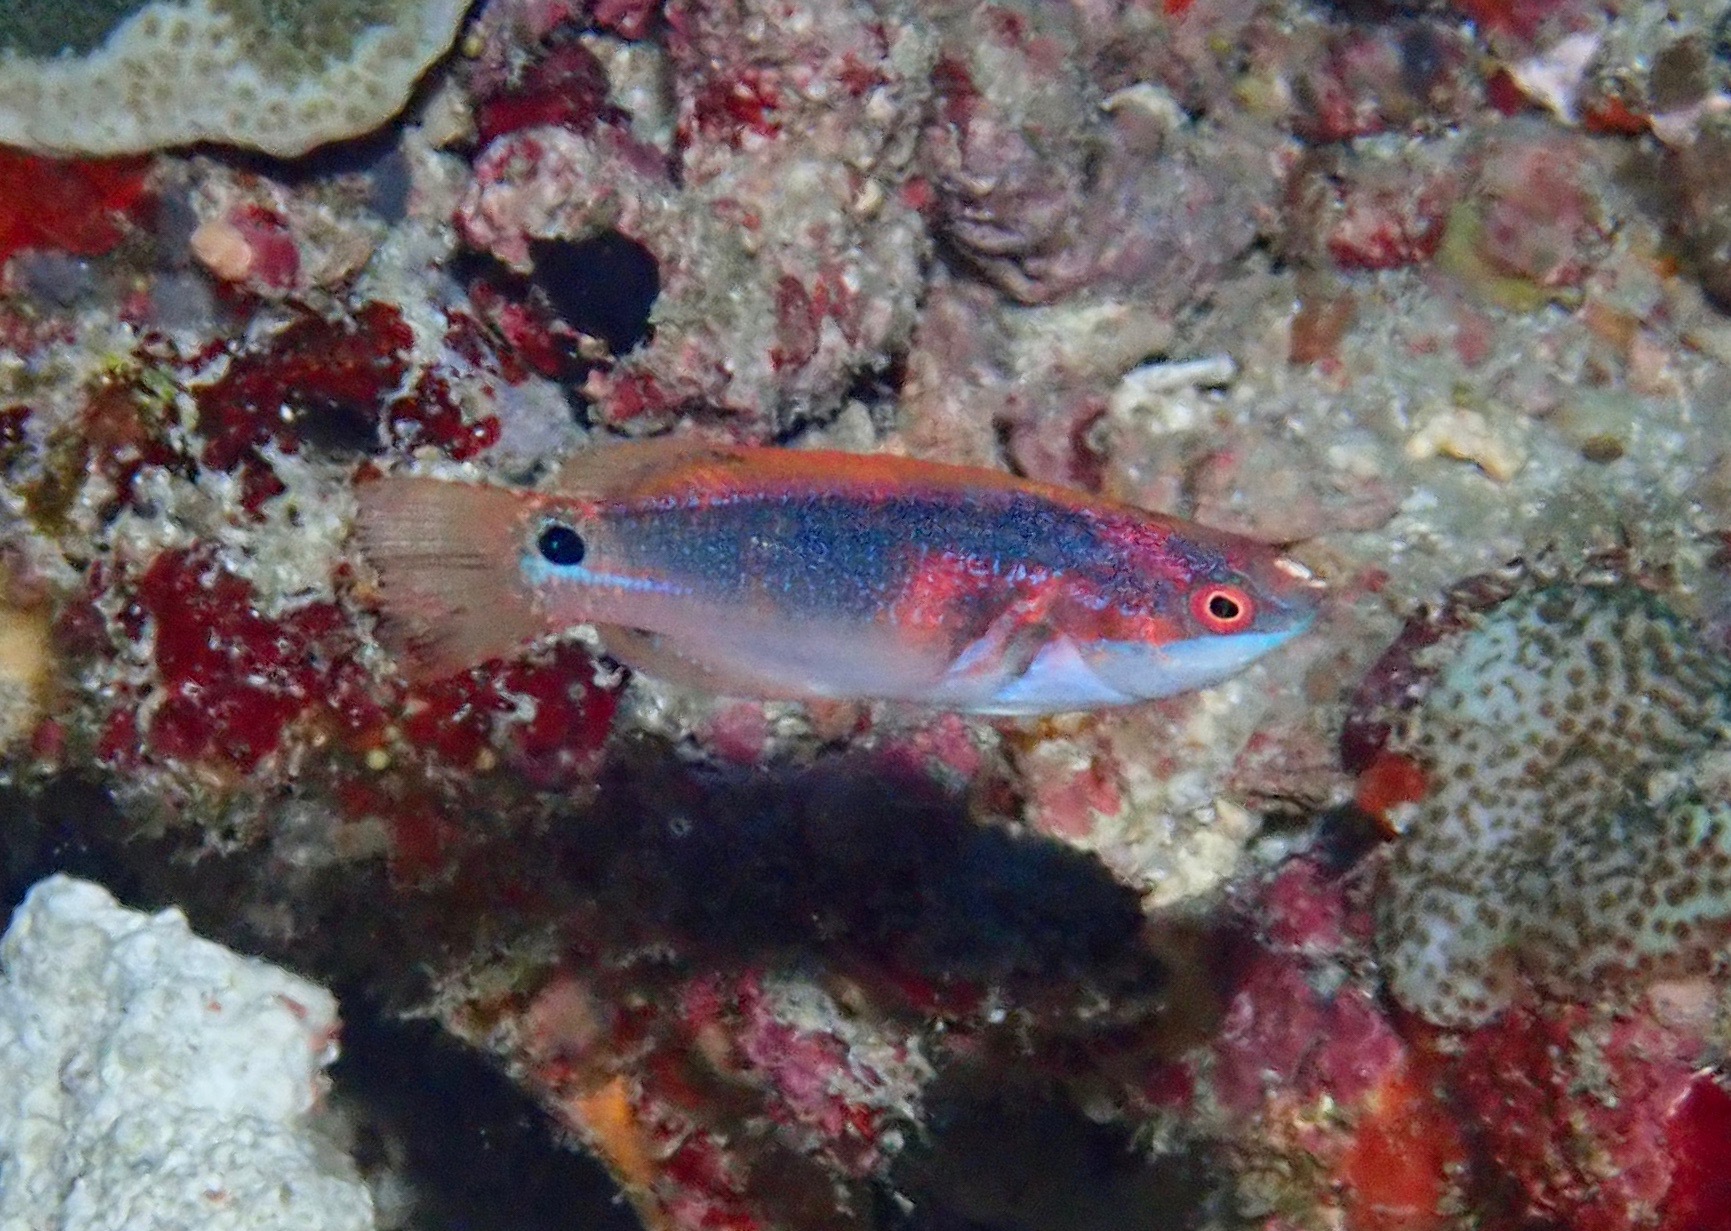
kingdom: Animalia
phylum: Chordata
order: Perciformes
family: Labridae
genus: Cirrhilabrus
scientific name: Cirrhilabrus exquisitus
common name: Exquisite wrasse
